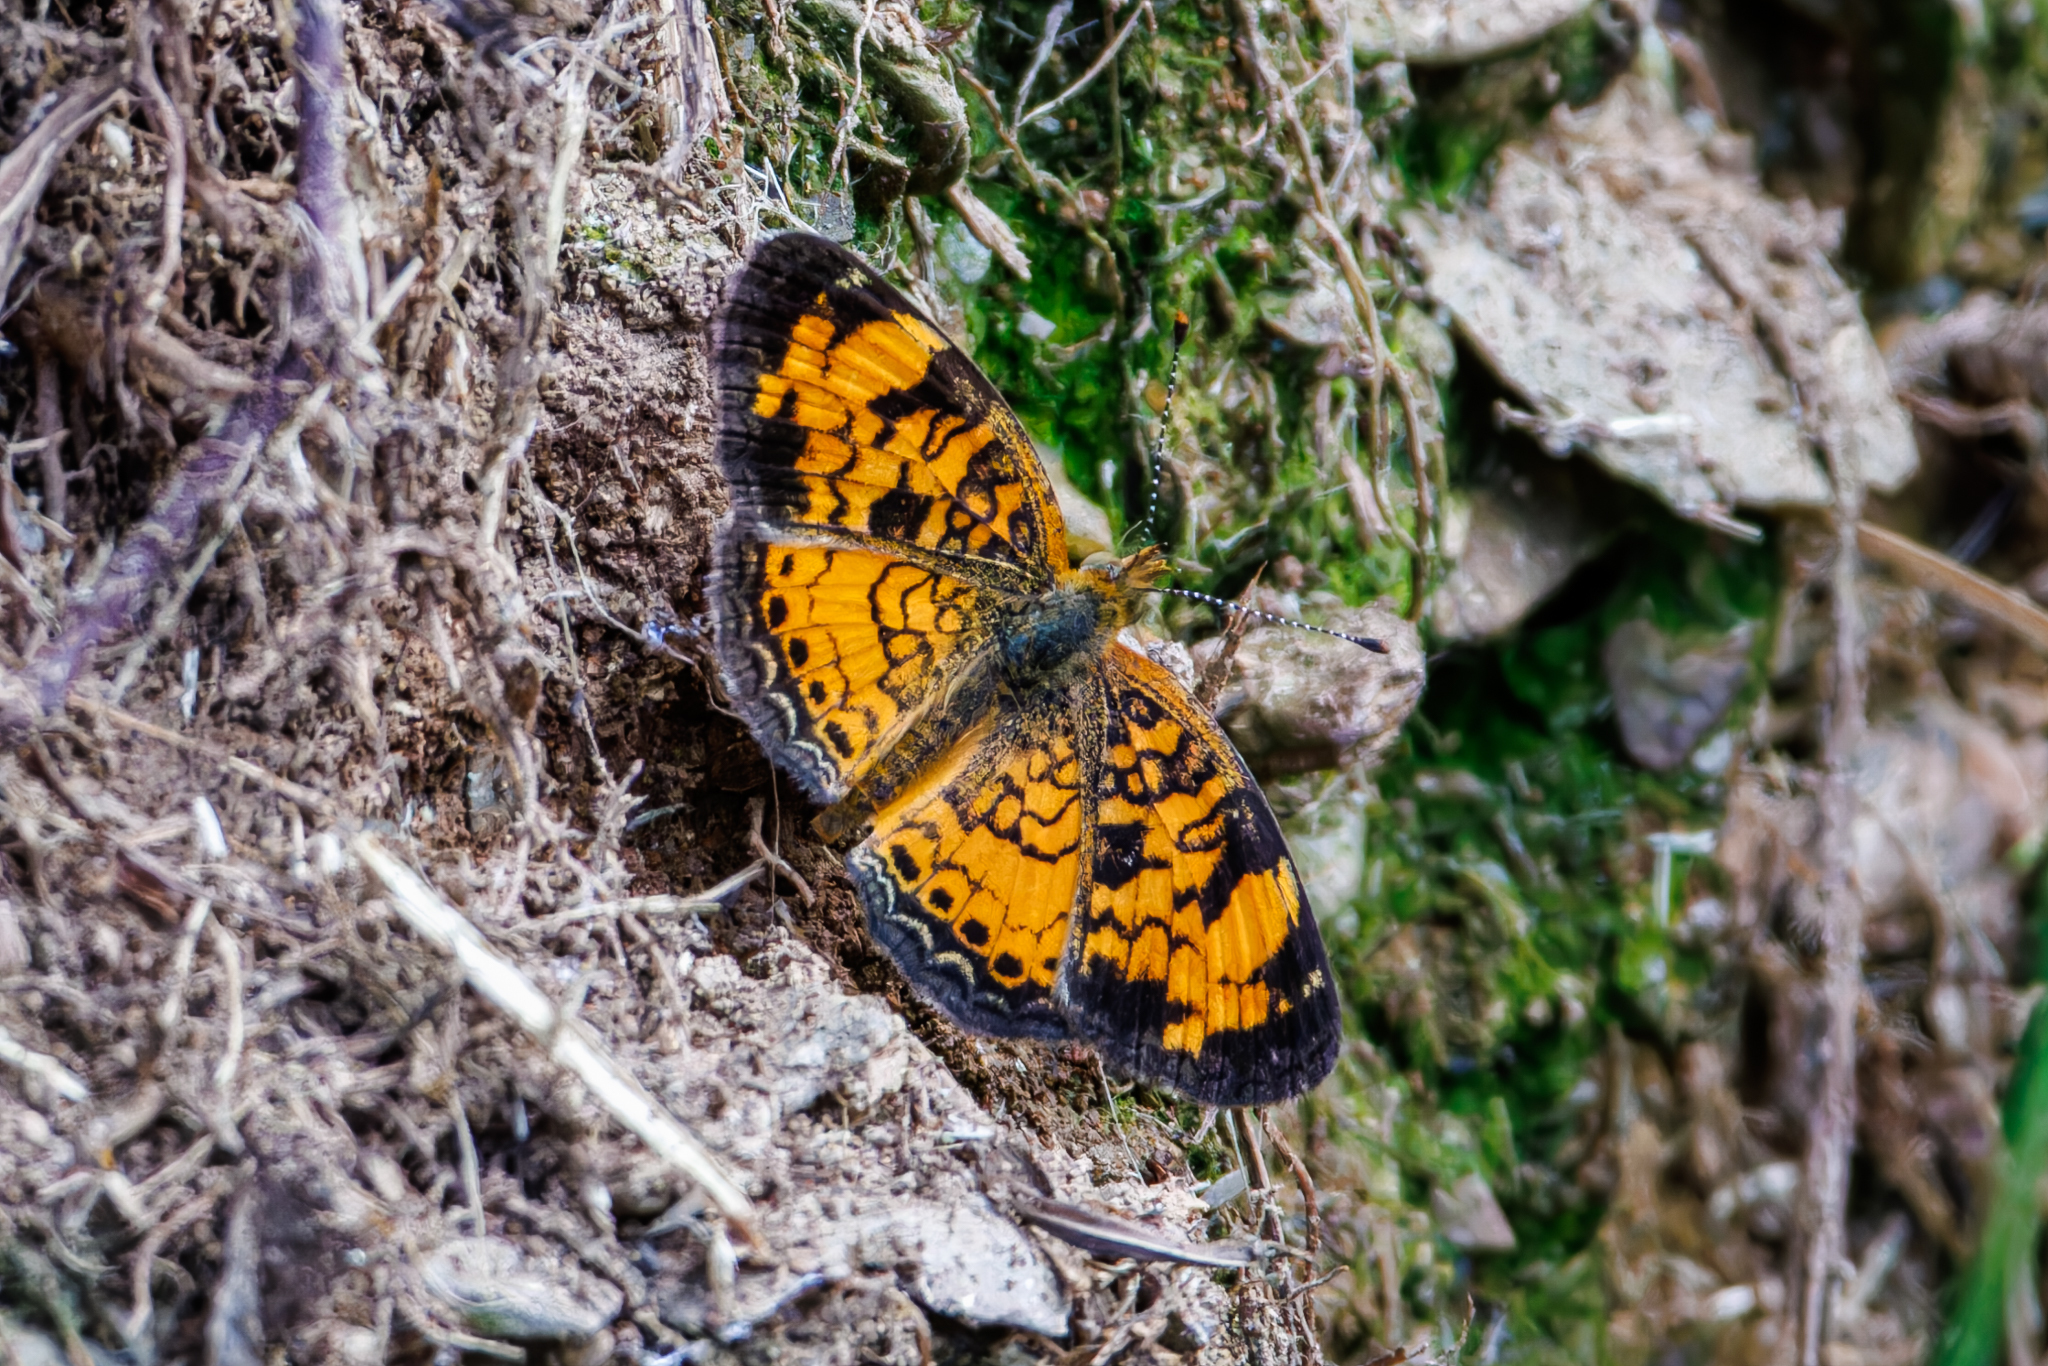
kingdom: Animalia
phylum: Arthropoda
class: Insecta
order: Lepidoptera
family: Nymphalidae
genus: Phyciodes
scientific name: Phyciodes tharos
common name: Pearl crescent
